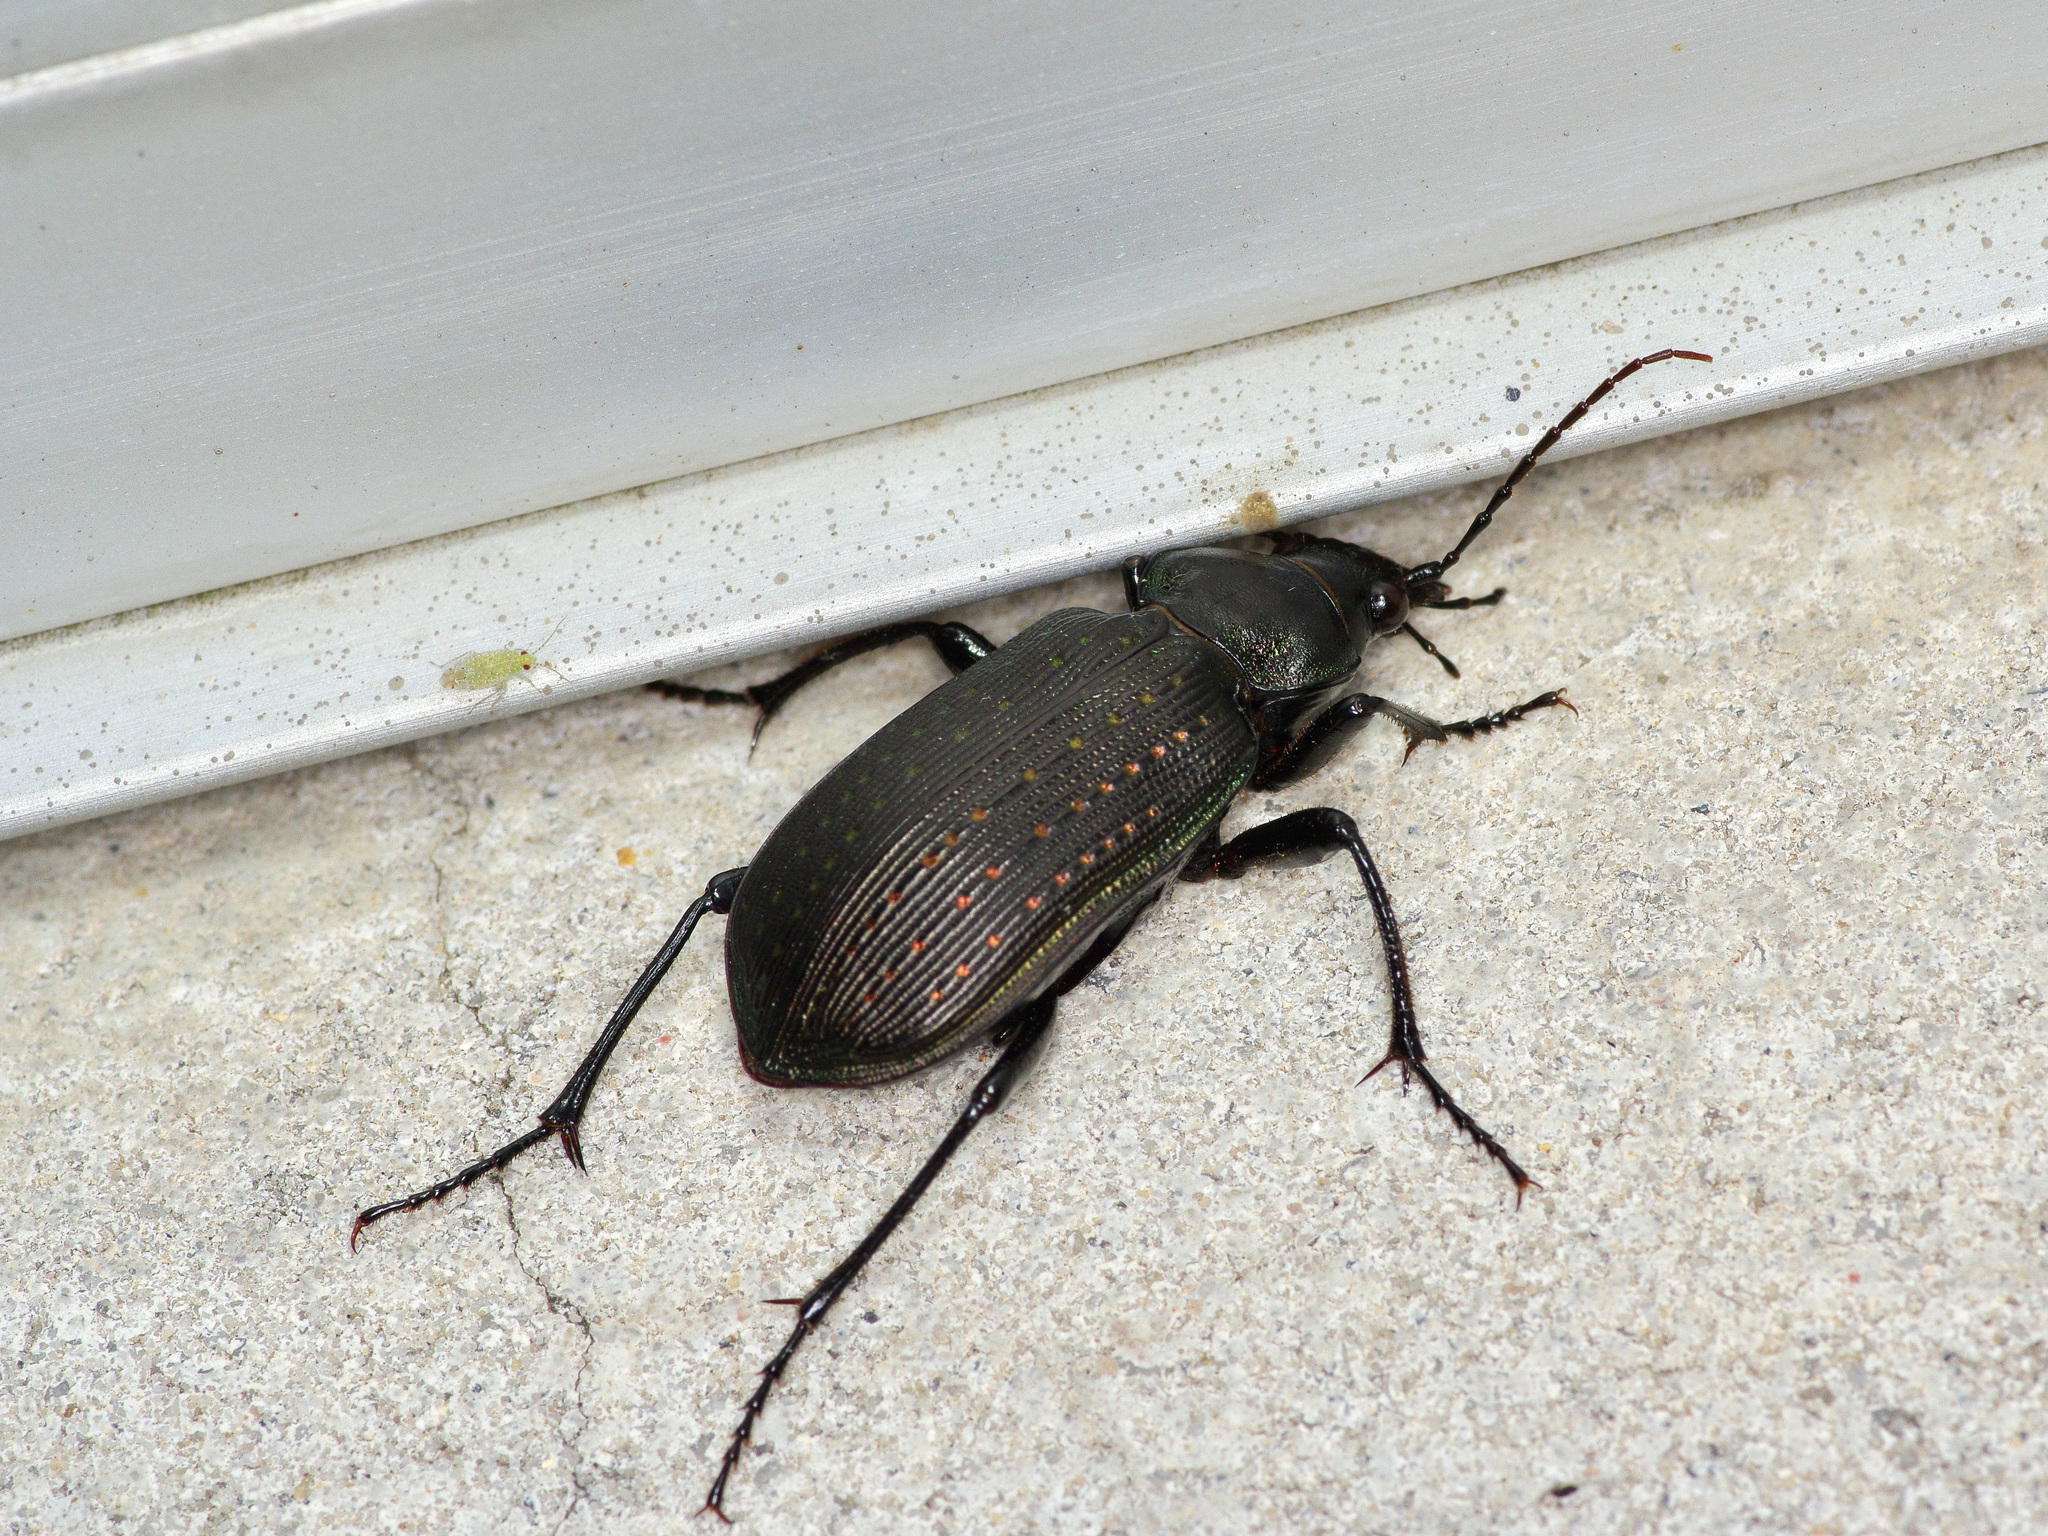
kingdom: Animalia
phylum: Arthropoda
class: Insecta
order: Coleoptera
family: Carabidae
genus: Calosoma
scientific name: Calosoma sayi
